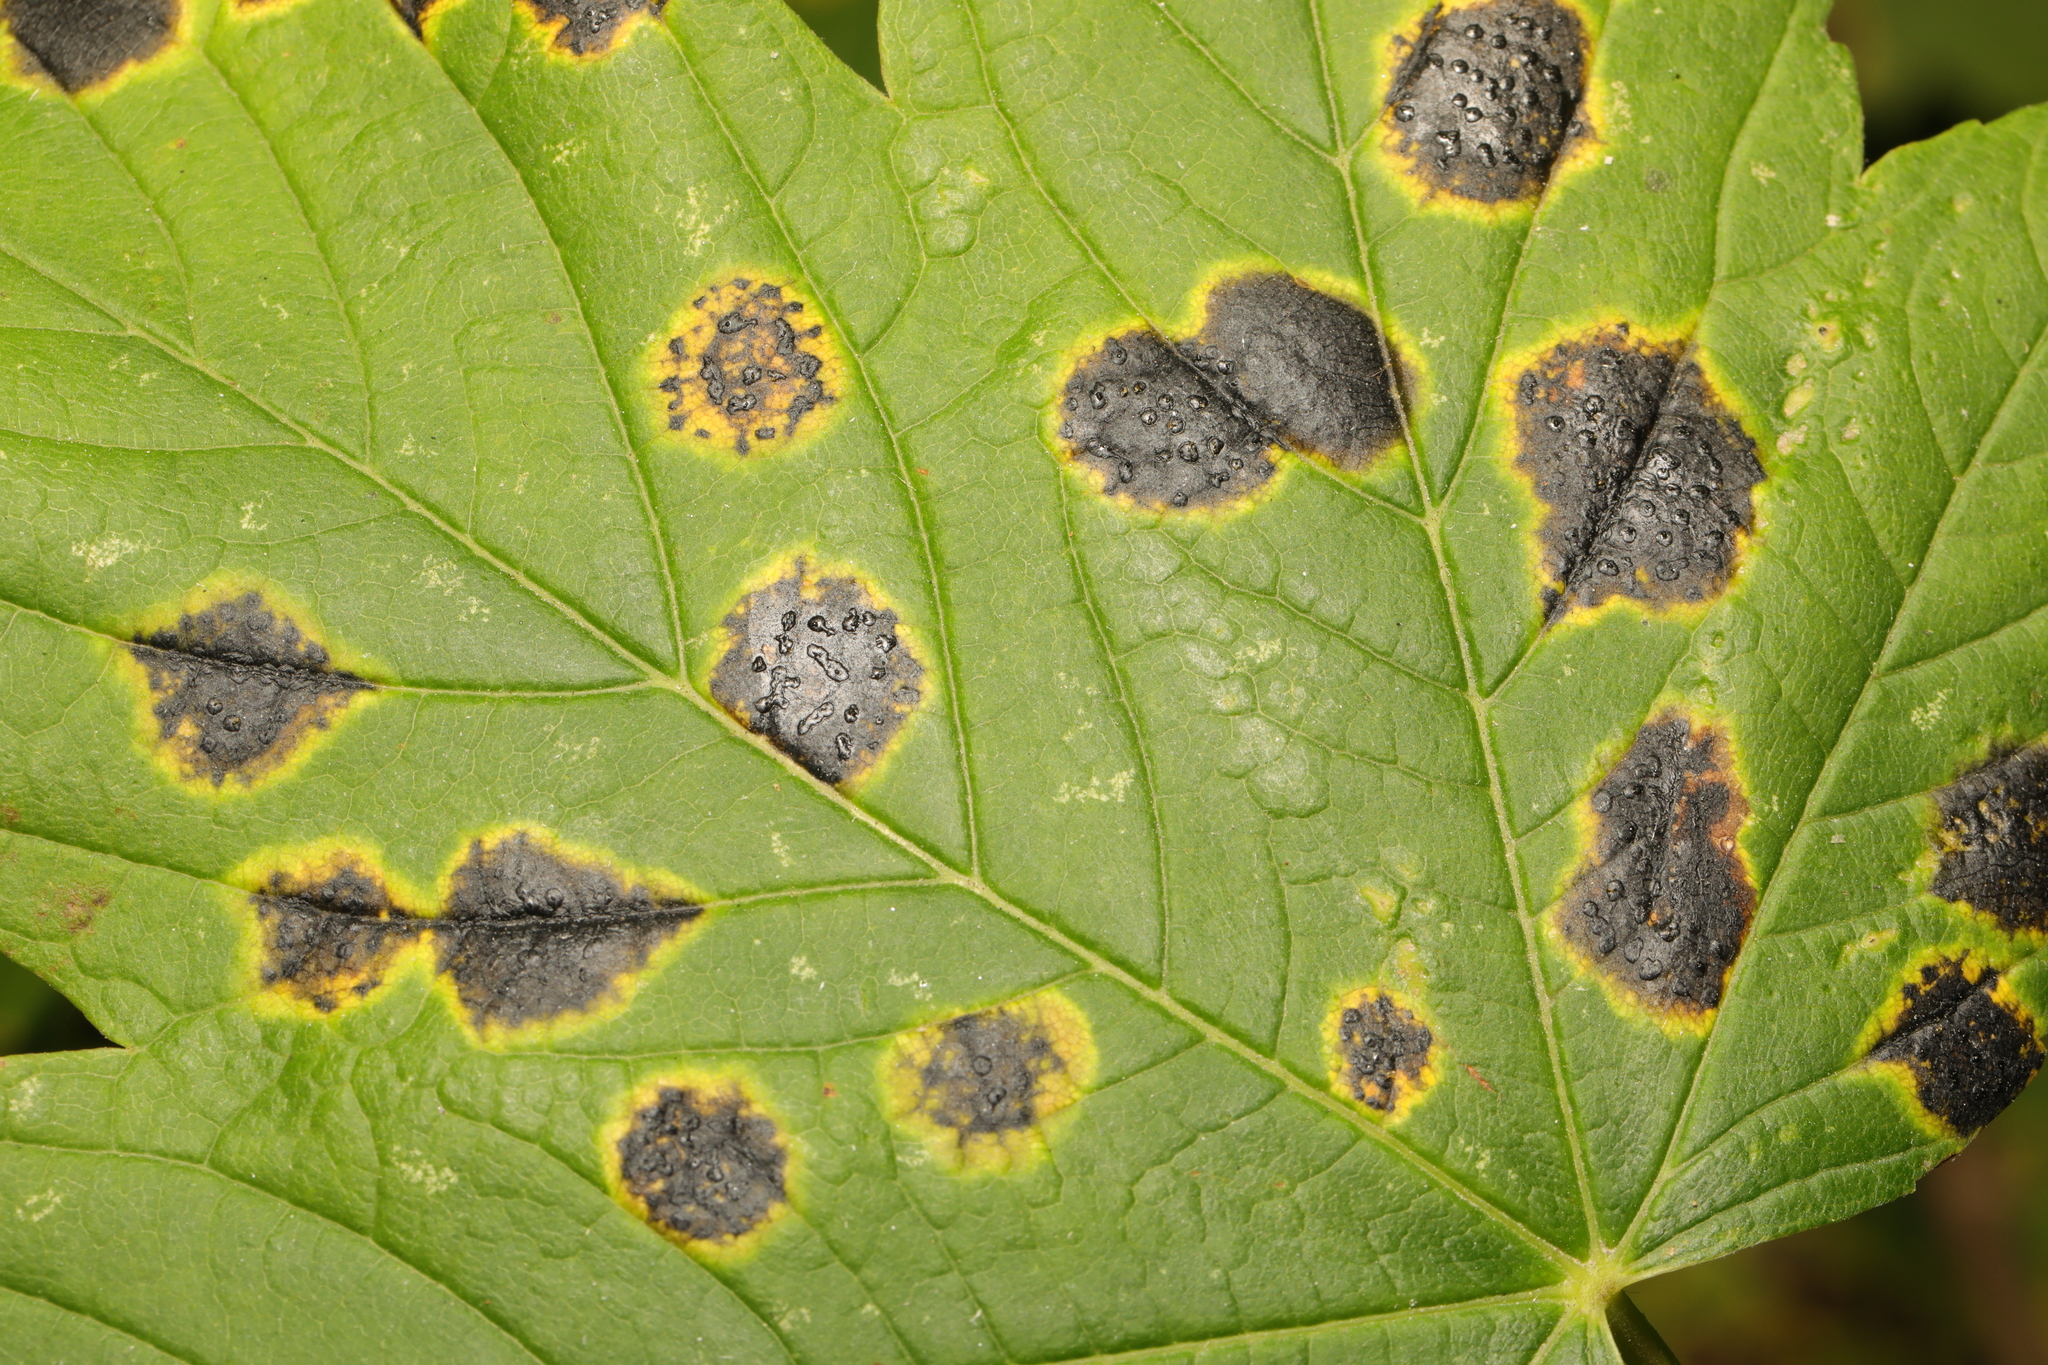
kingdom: Fungi
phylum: Ascomycota
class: Leotiomycetes
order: Rhytismatales
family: Rhytismataceae
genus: Rhytisma
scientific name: Rhytisma acerinum
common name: European tar spot
